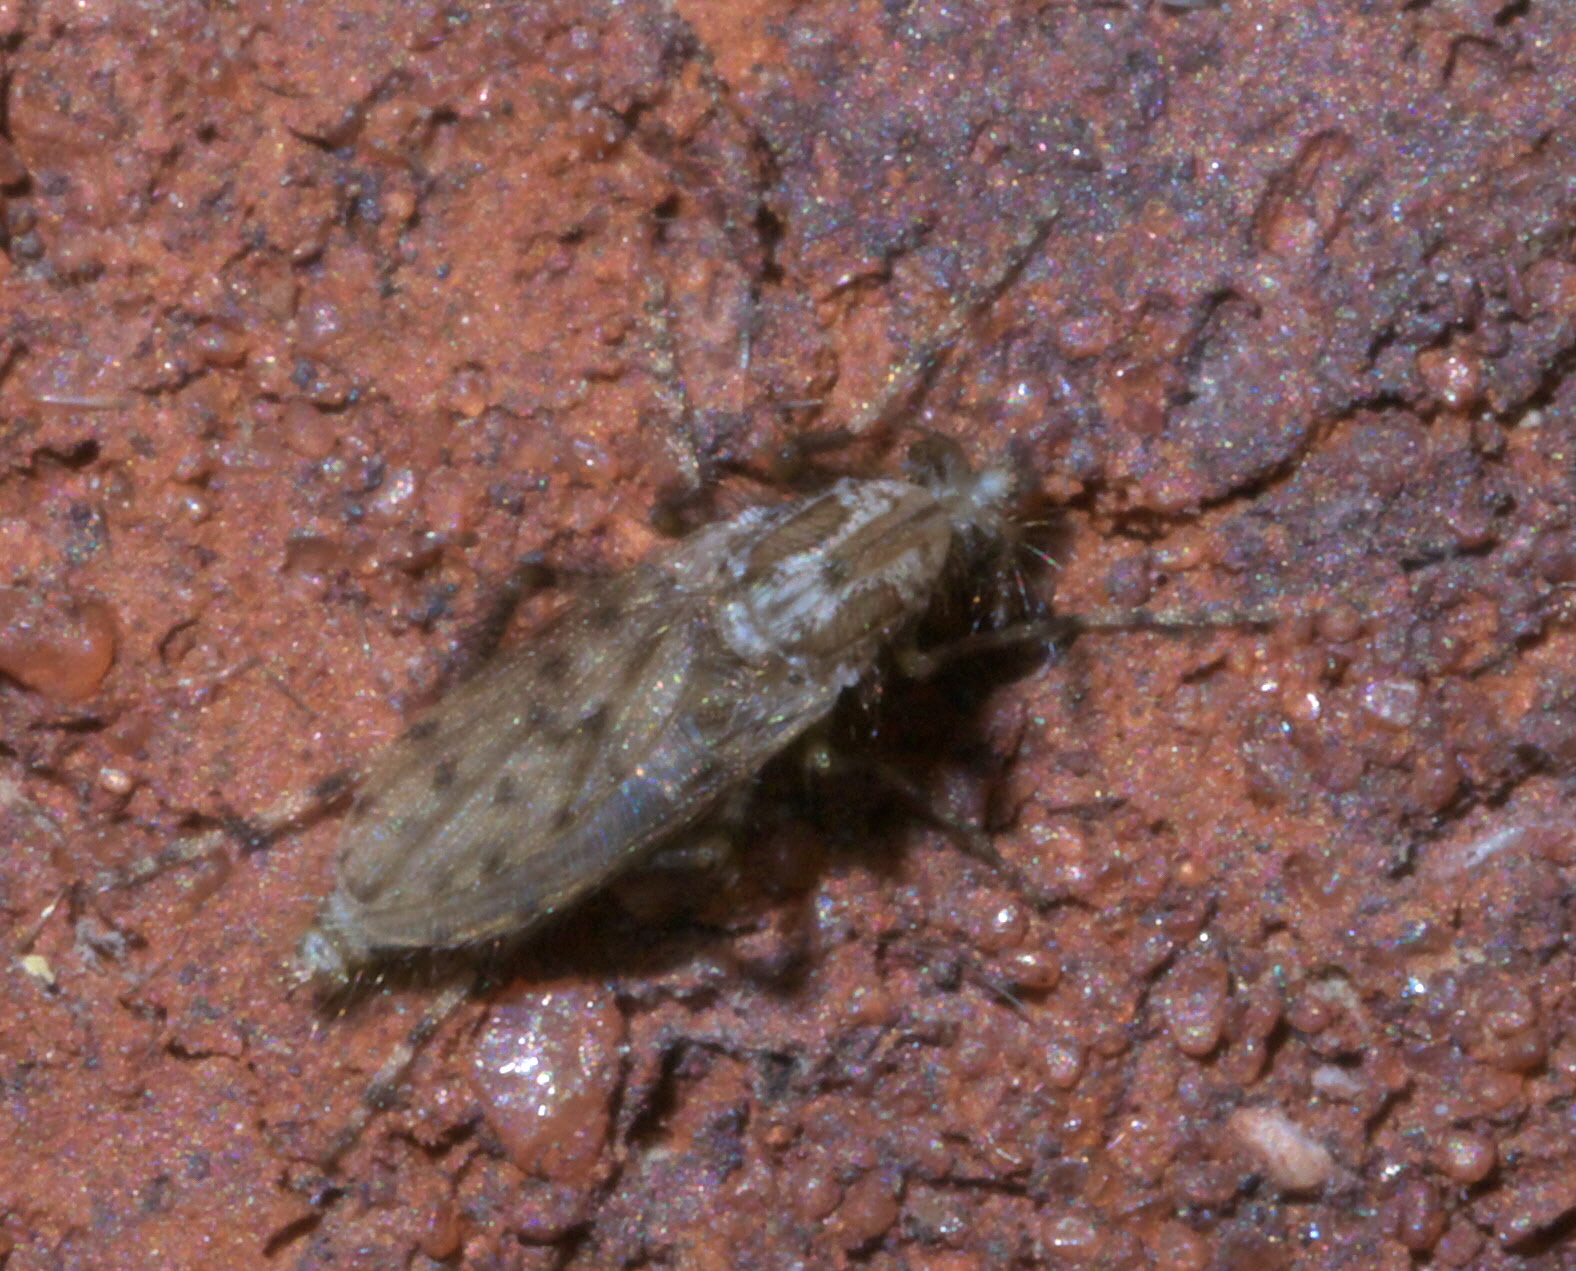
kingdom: Animalia
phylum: Arthropoda
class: Insecta
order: Diptera
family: Chaoboridae
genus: Chaoborus
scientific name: Chaoborus punctipennis
